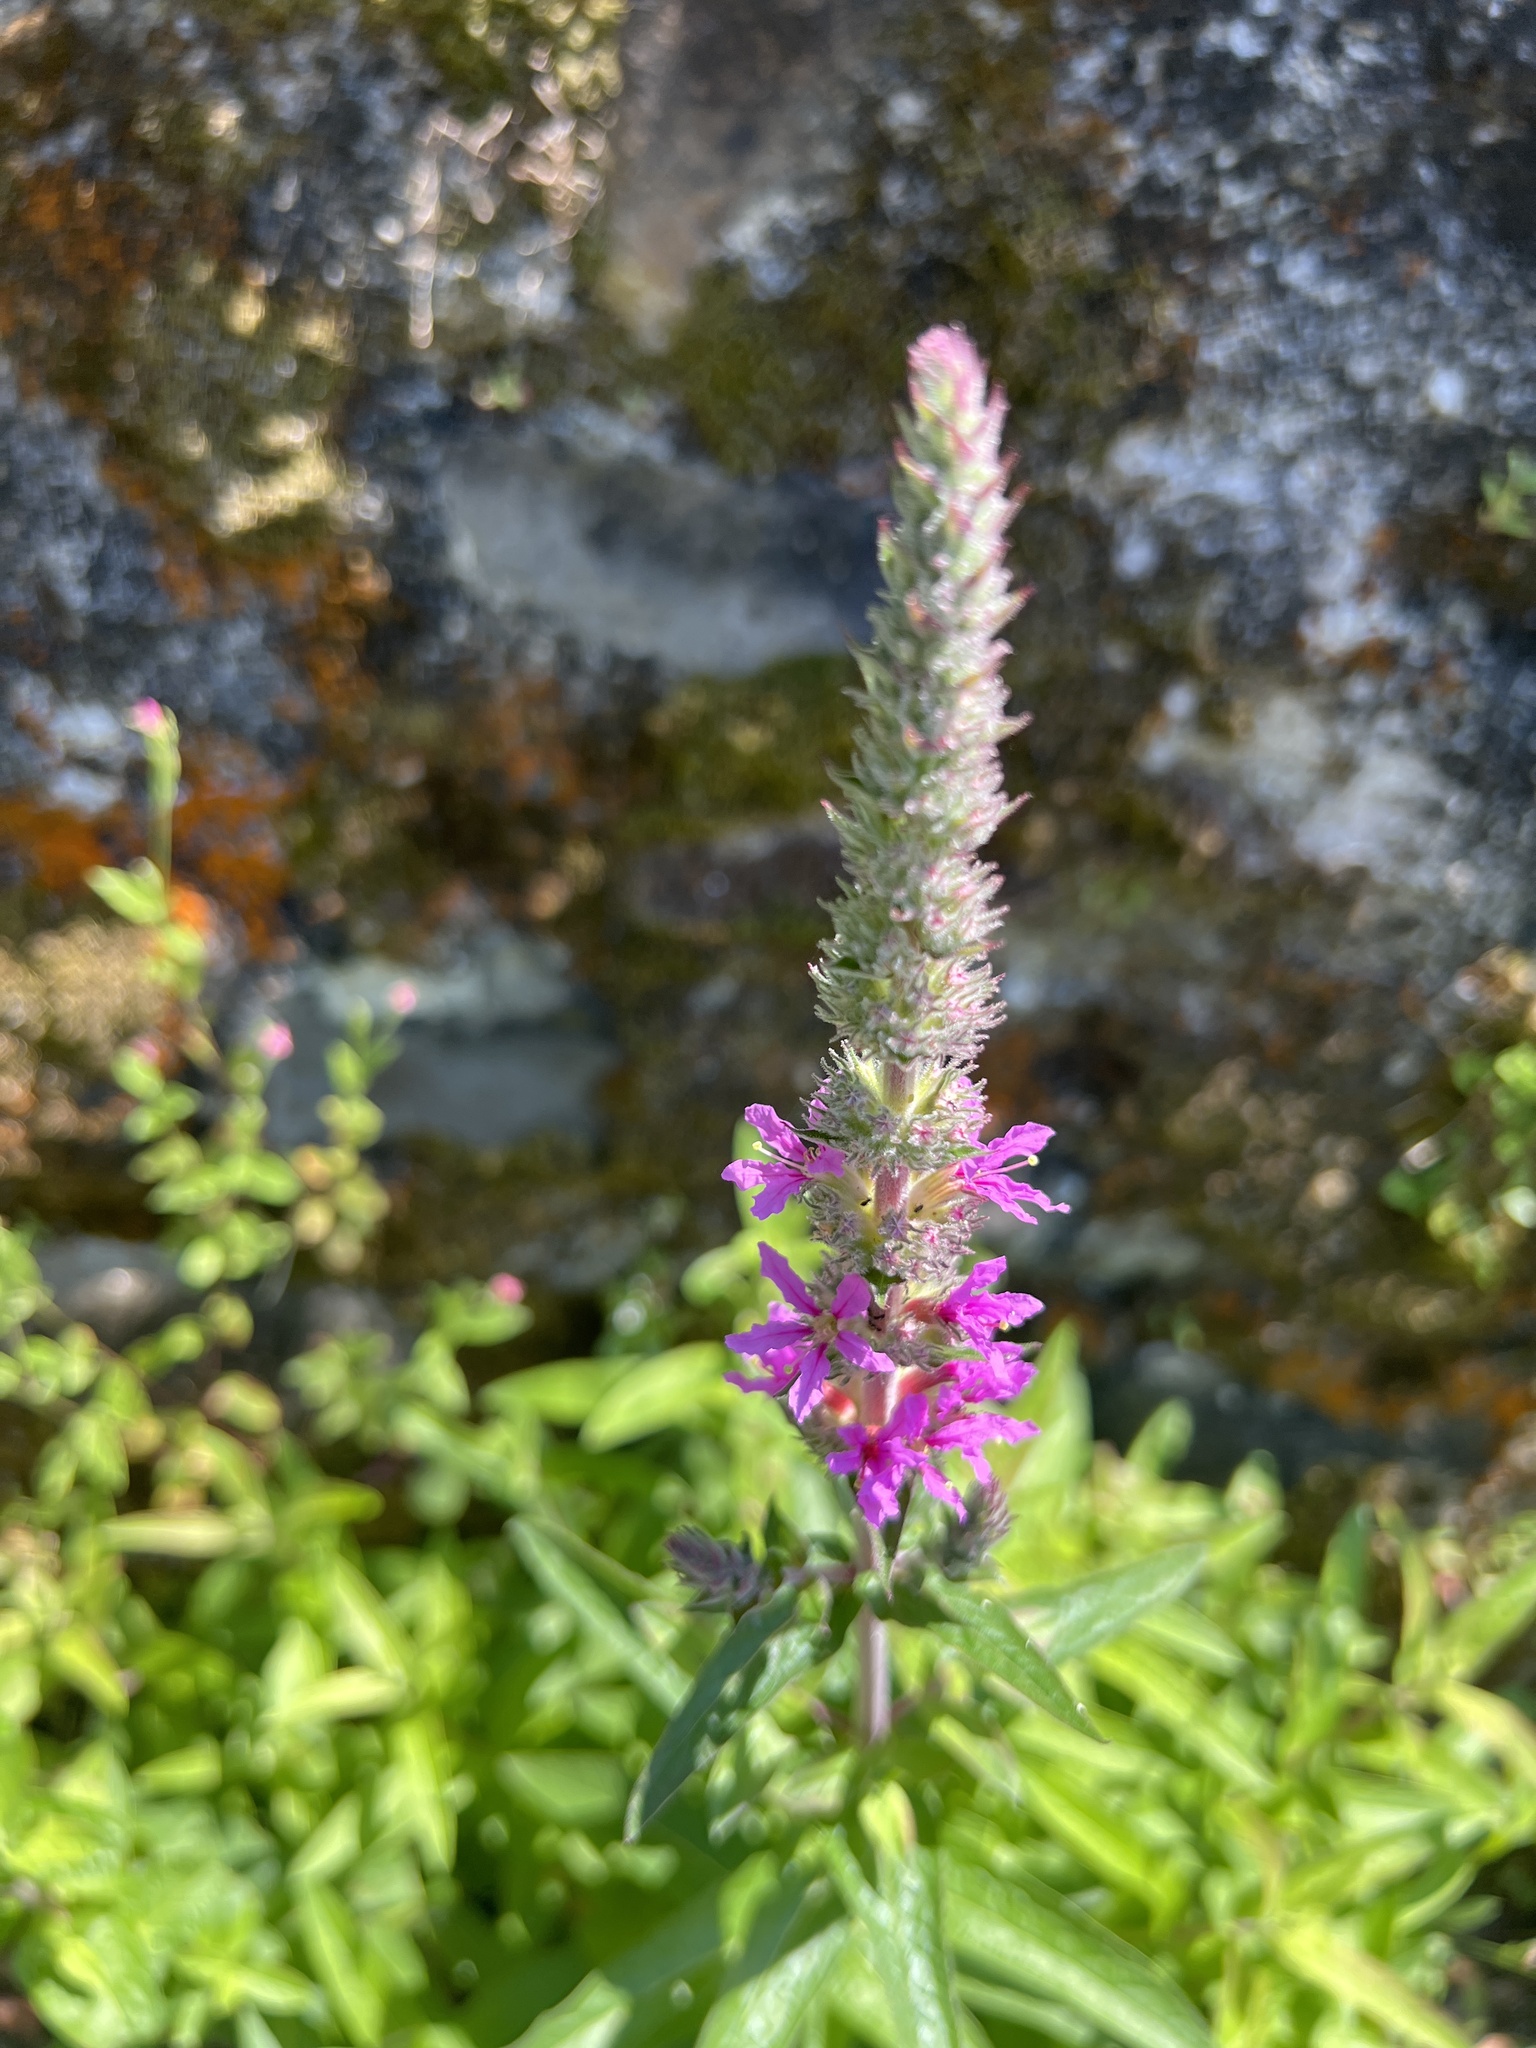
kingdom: Plantae
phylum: Tracheophyta
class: Magnoliopsida
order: Myrtales
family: Lythraceae
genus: Lythrum
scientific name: Lythrum salicaria
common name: Purple loosestrife
